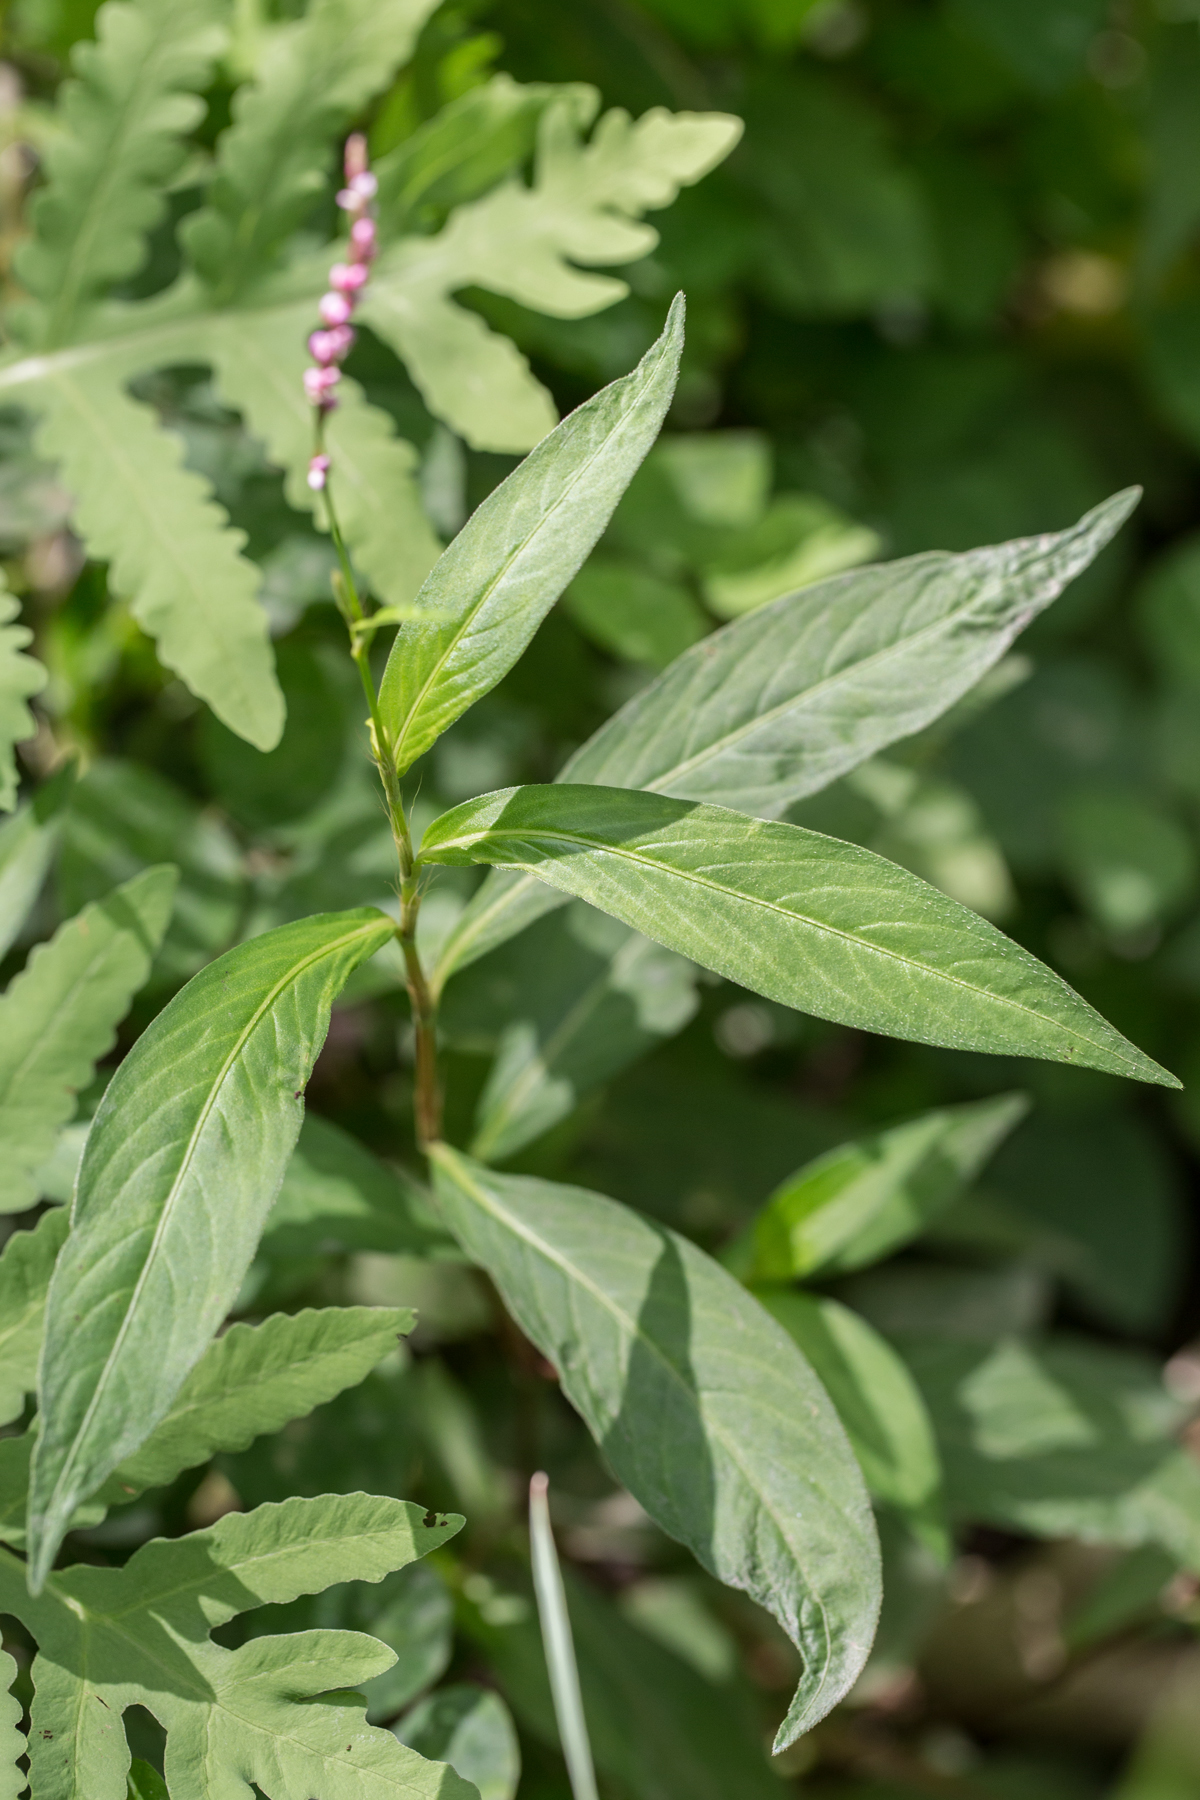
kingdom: Plantae
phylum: Tracheophyta
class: Magnoliopsida
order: Caryophyllales
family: Polygonaceae
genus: Persicaria
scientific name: Persicaria longiseta
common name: Bristly lady's-thumb
